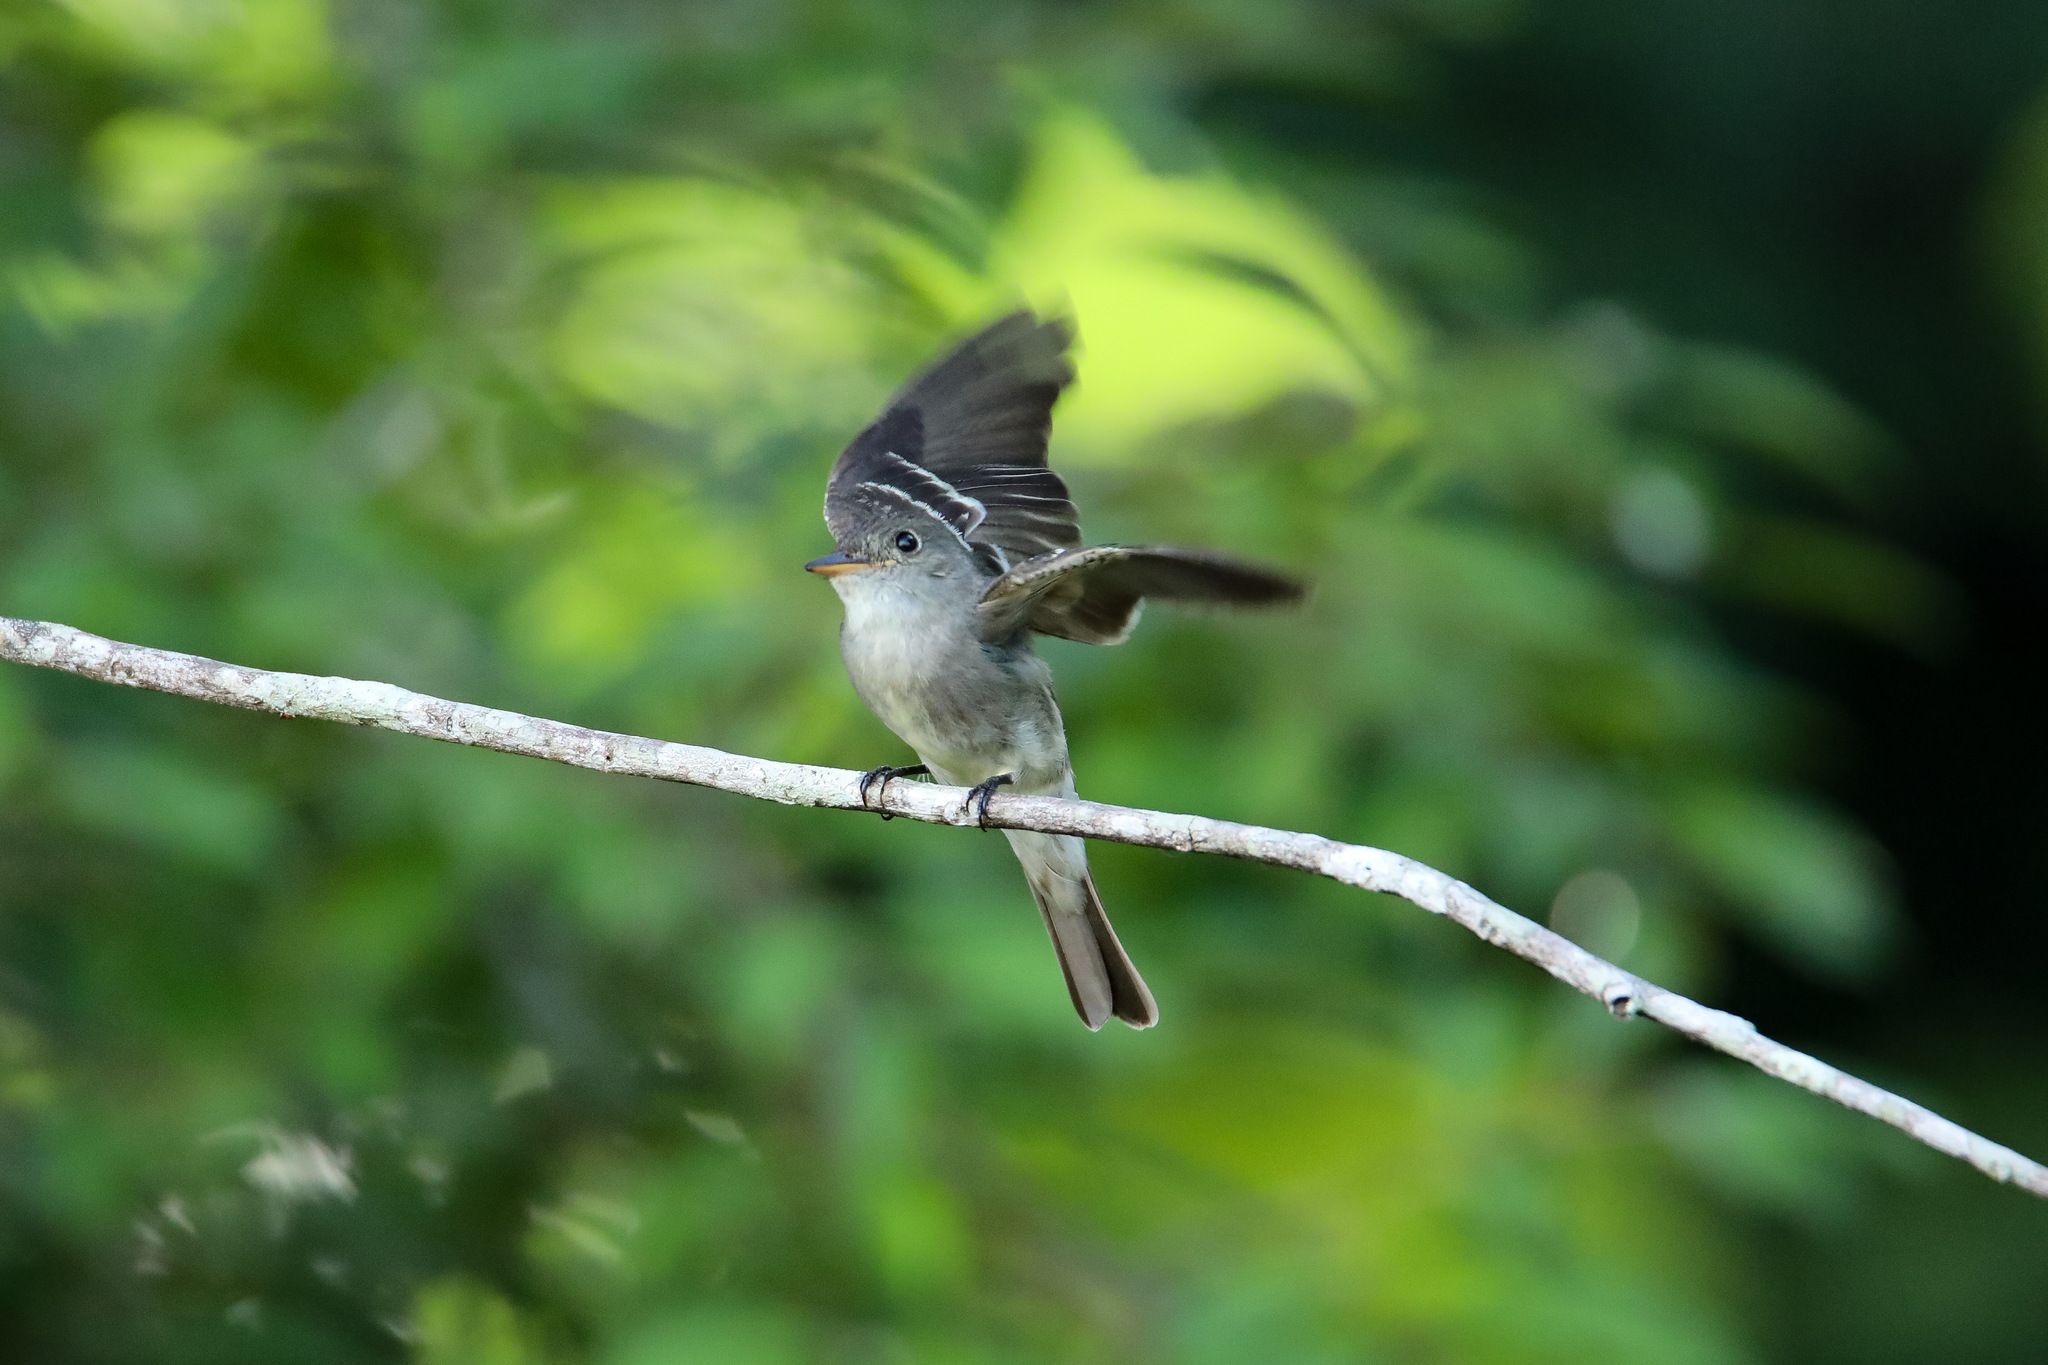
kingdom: Animalia
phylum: Chordata
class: Aves
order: Passeriformes
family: Tyrannidae
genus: Contopus
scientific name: Contopus virens
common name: Eastern wood-pewee
